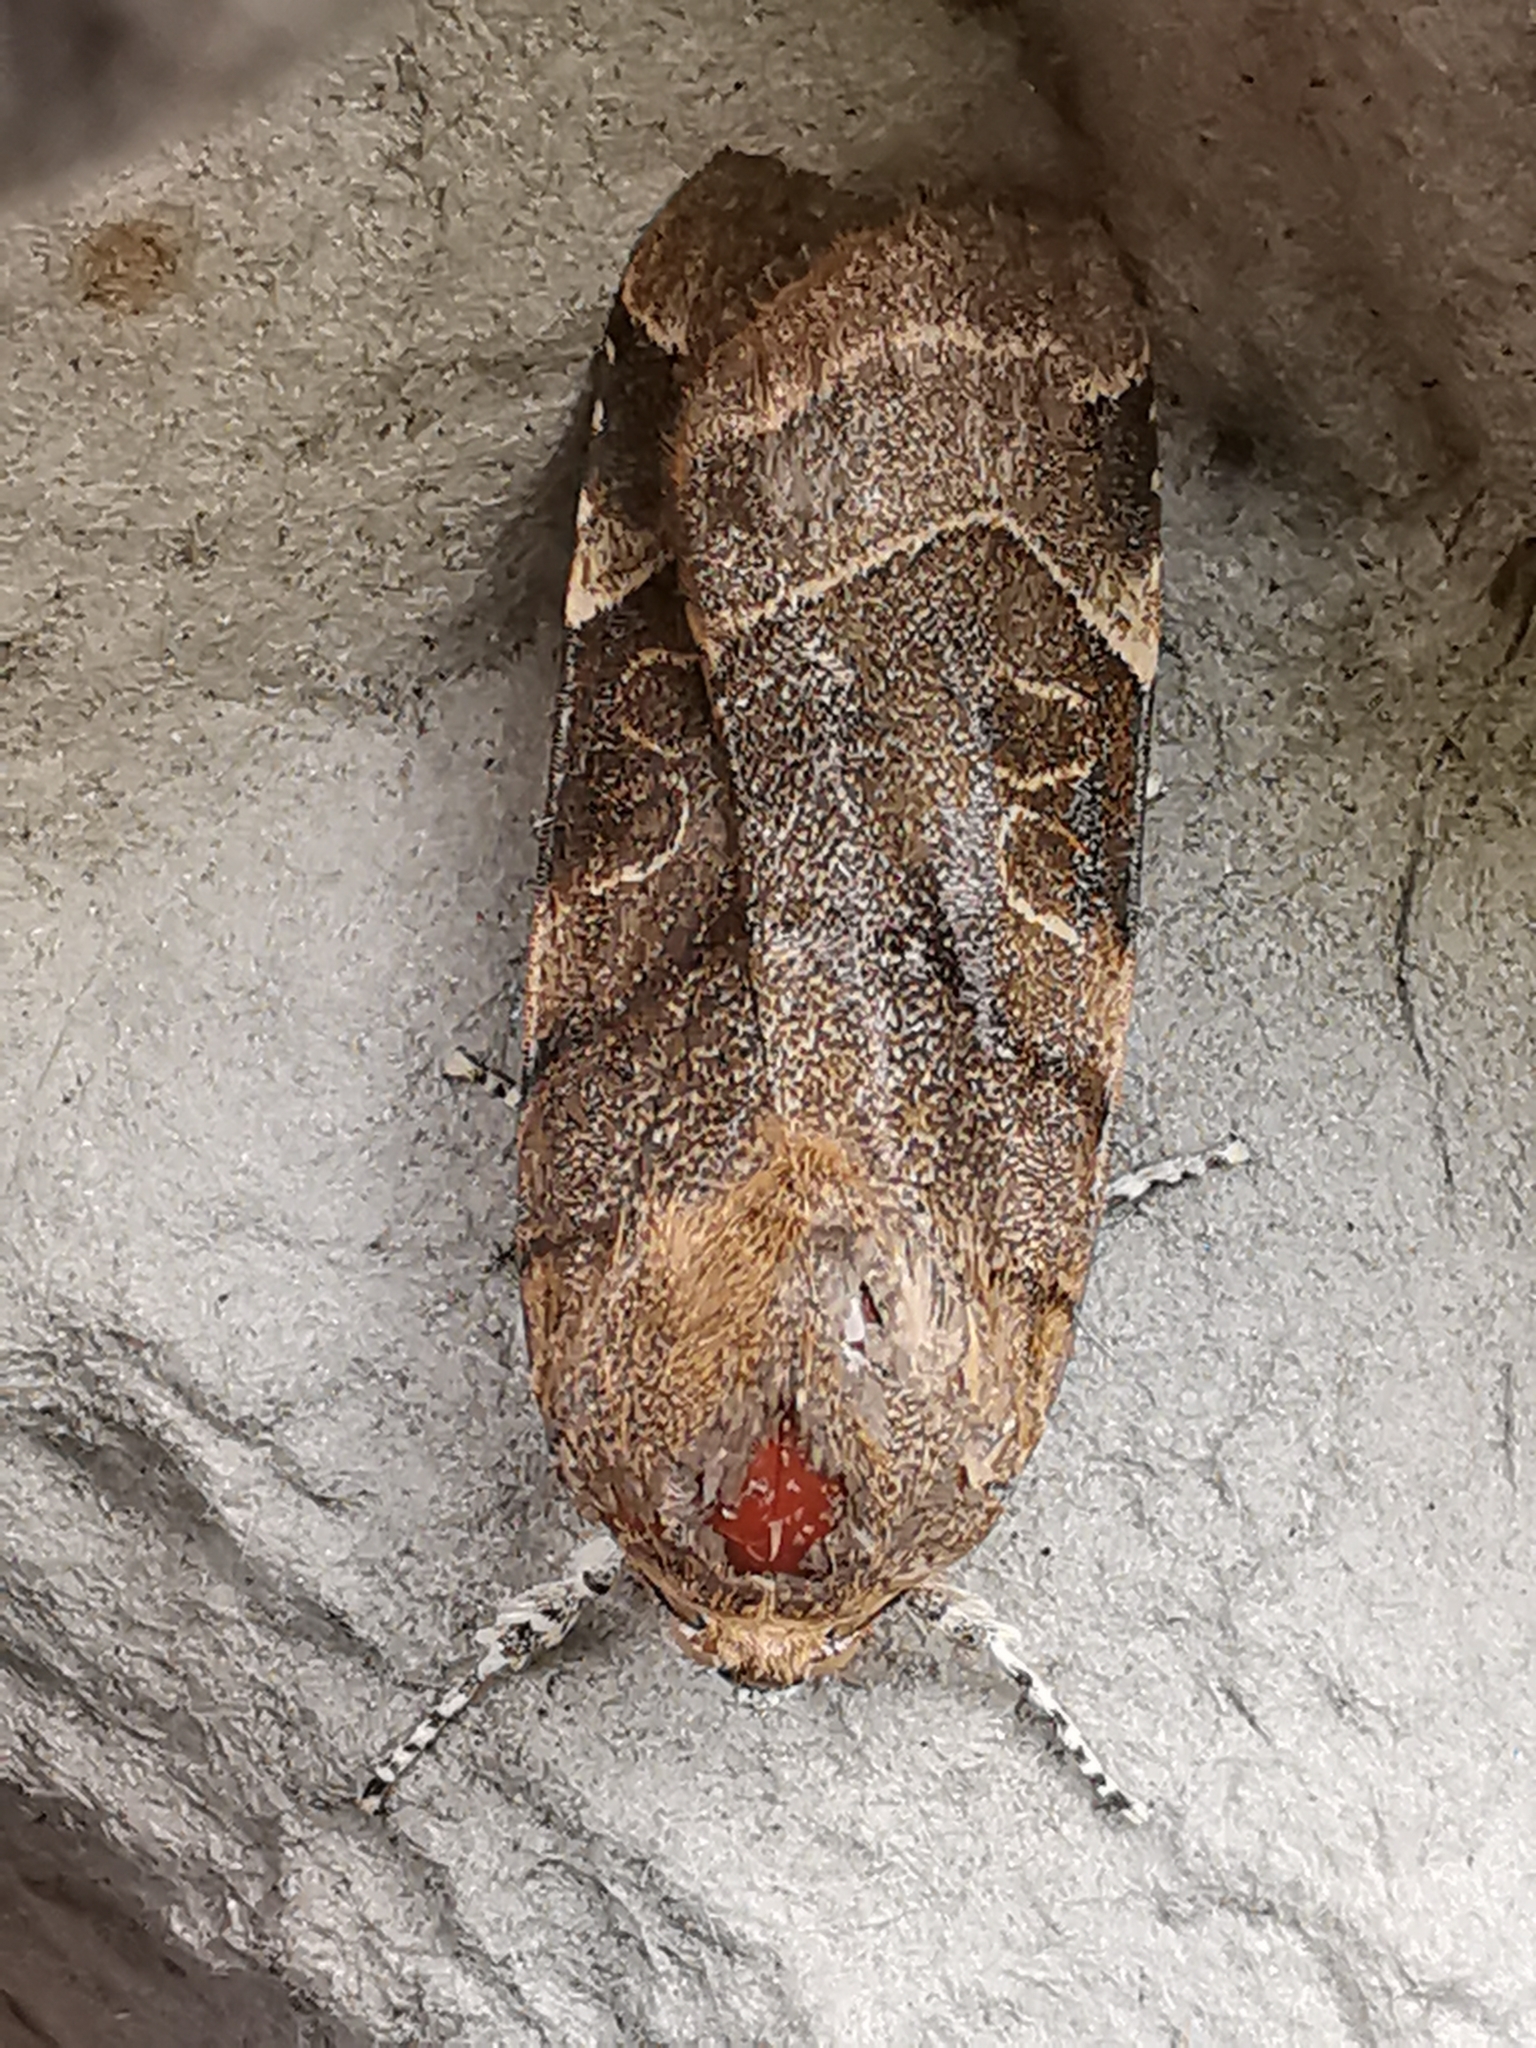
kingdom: Animalia
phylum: Arthropoda
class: Insecta
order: Lepidoptera
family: Noctuidae
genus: Noctua
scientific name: Noctua fimbriata
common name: Broad-bordered yellow underwing
